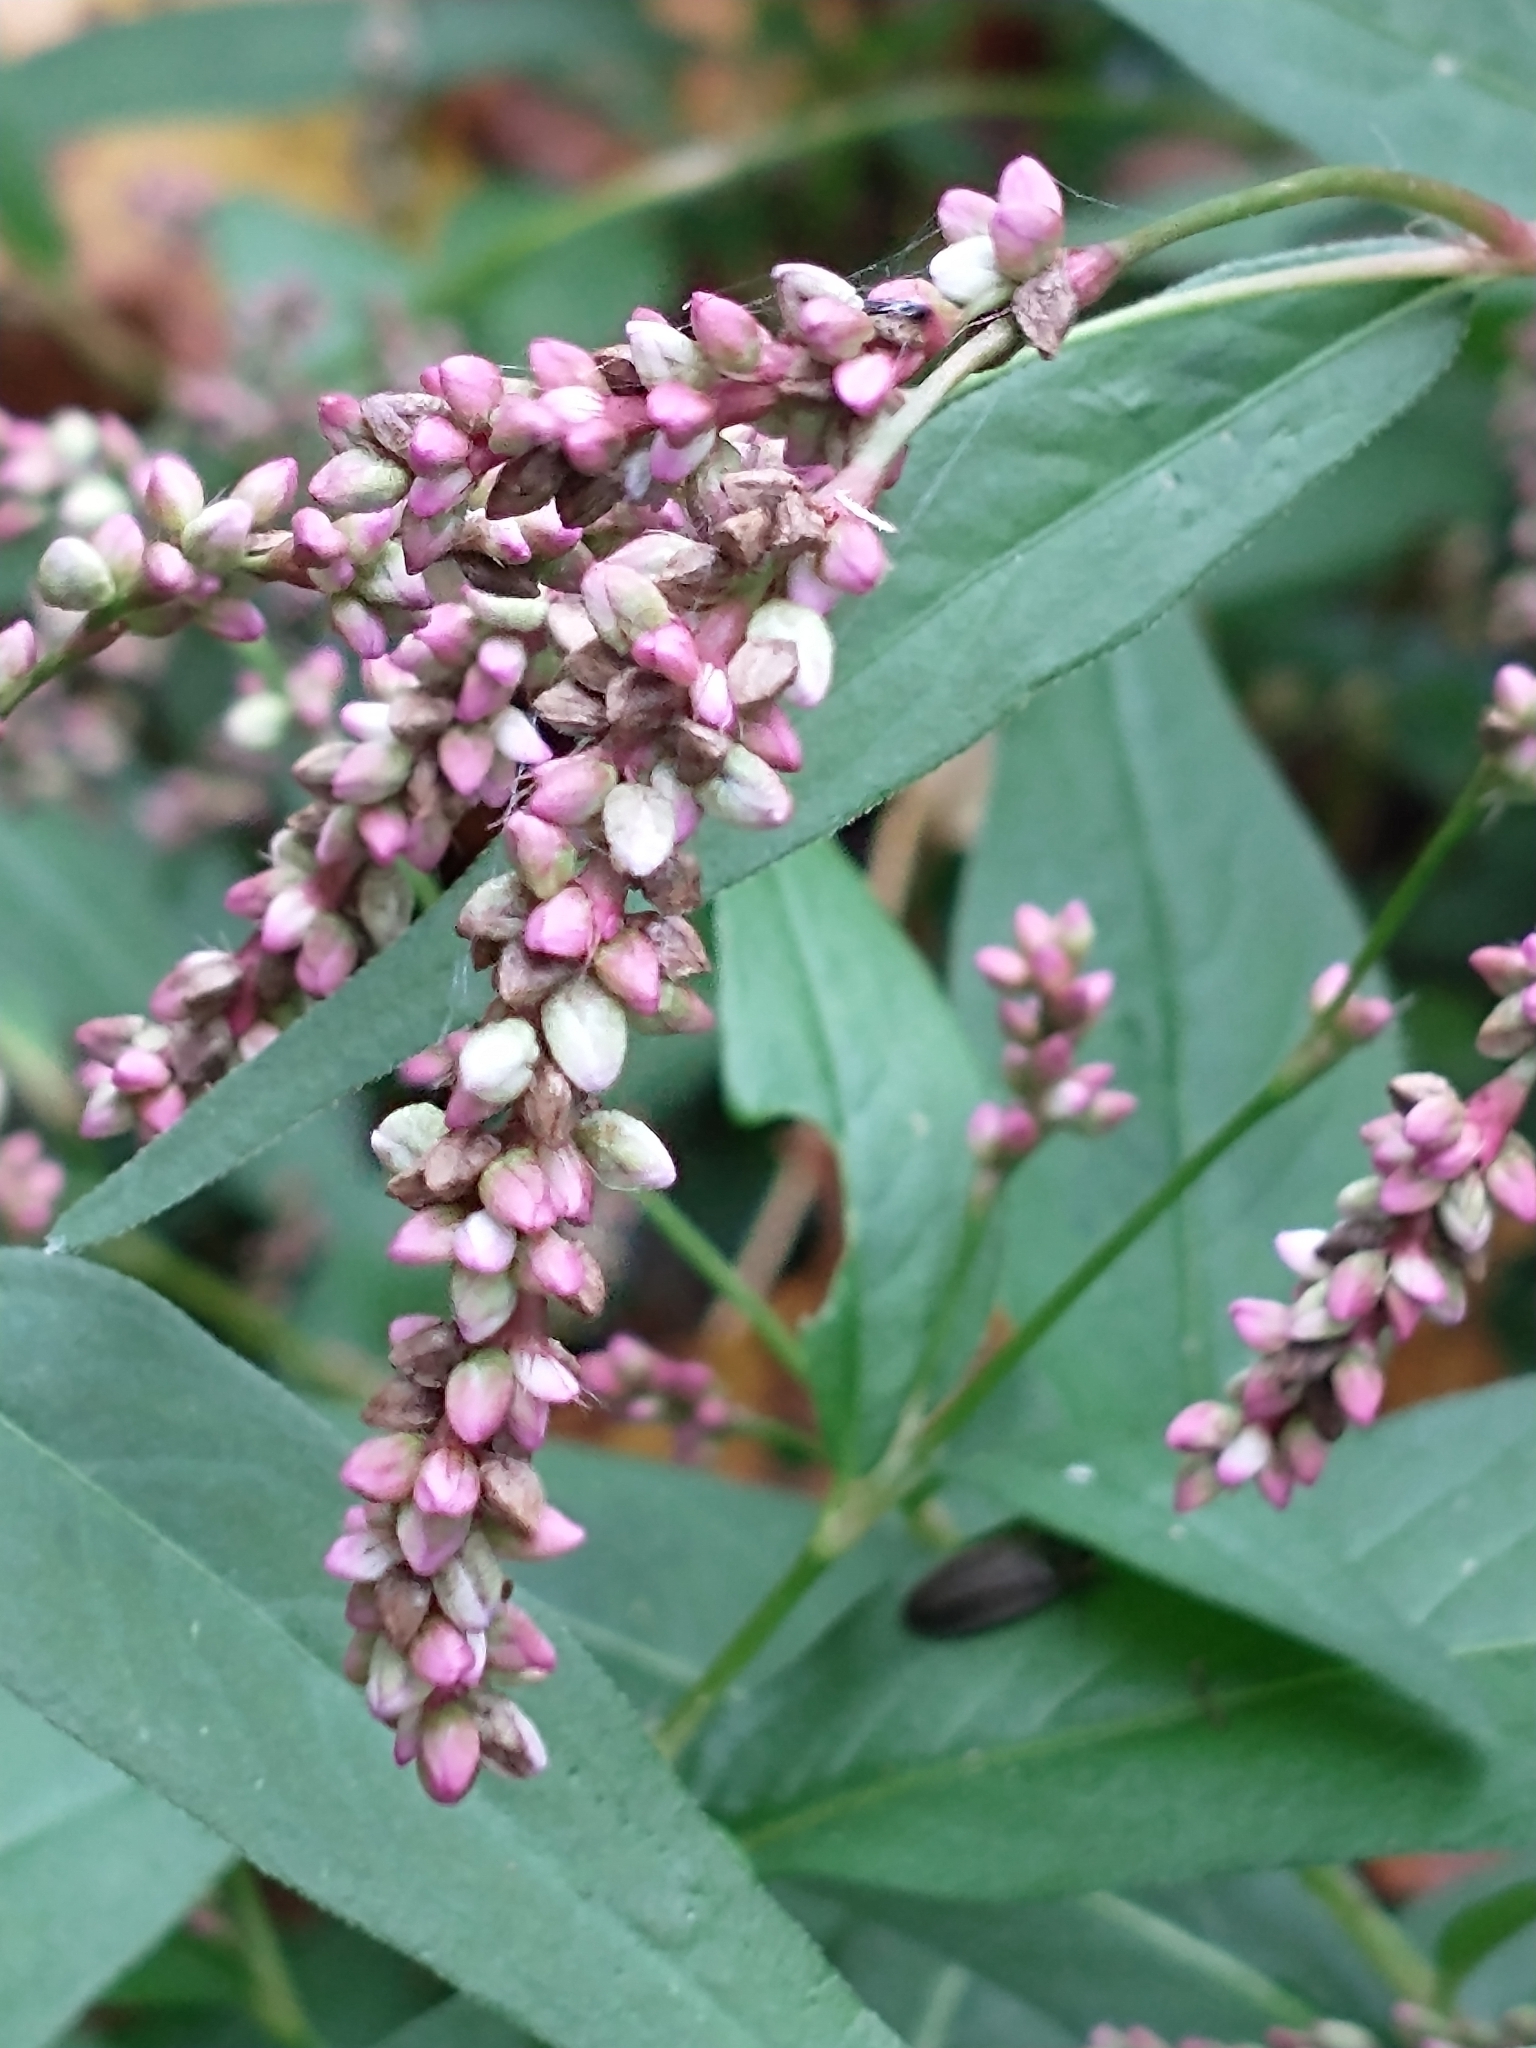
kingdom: Plantae
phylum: Tracheophyta
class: Magnoliopsida
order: Caryophyllales
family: Polygonaceae
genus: Persicaria
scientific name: Persicaria longiseta
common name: Bristly lady's-thumb
